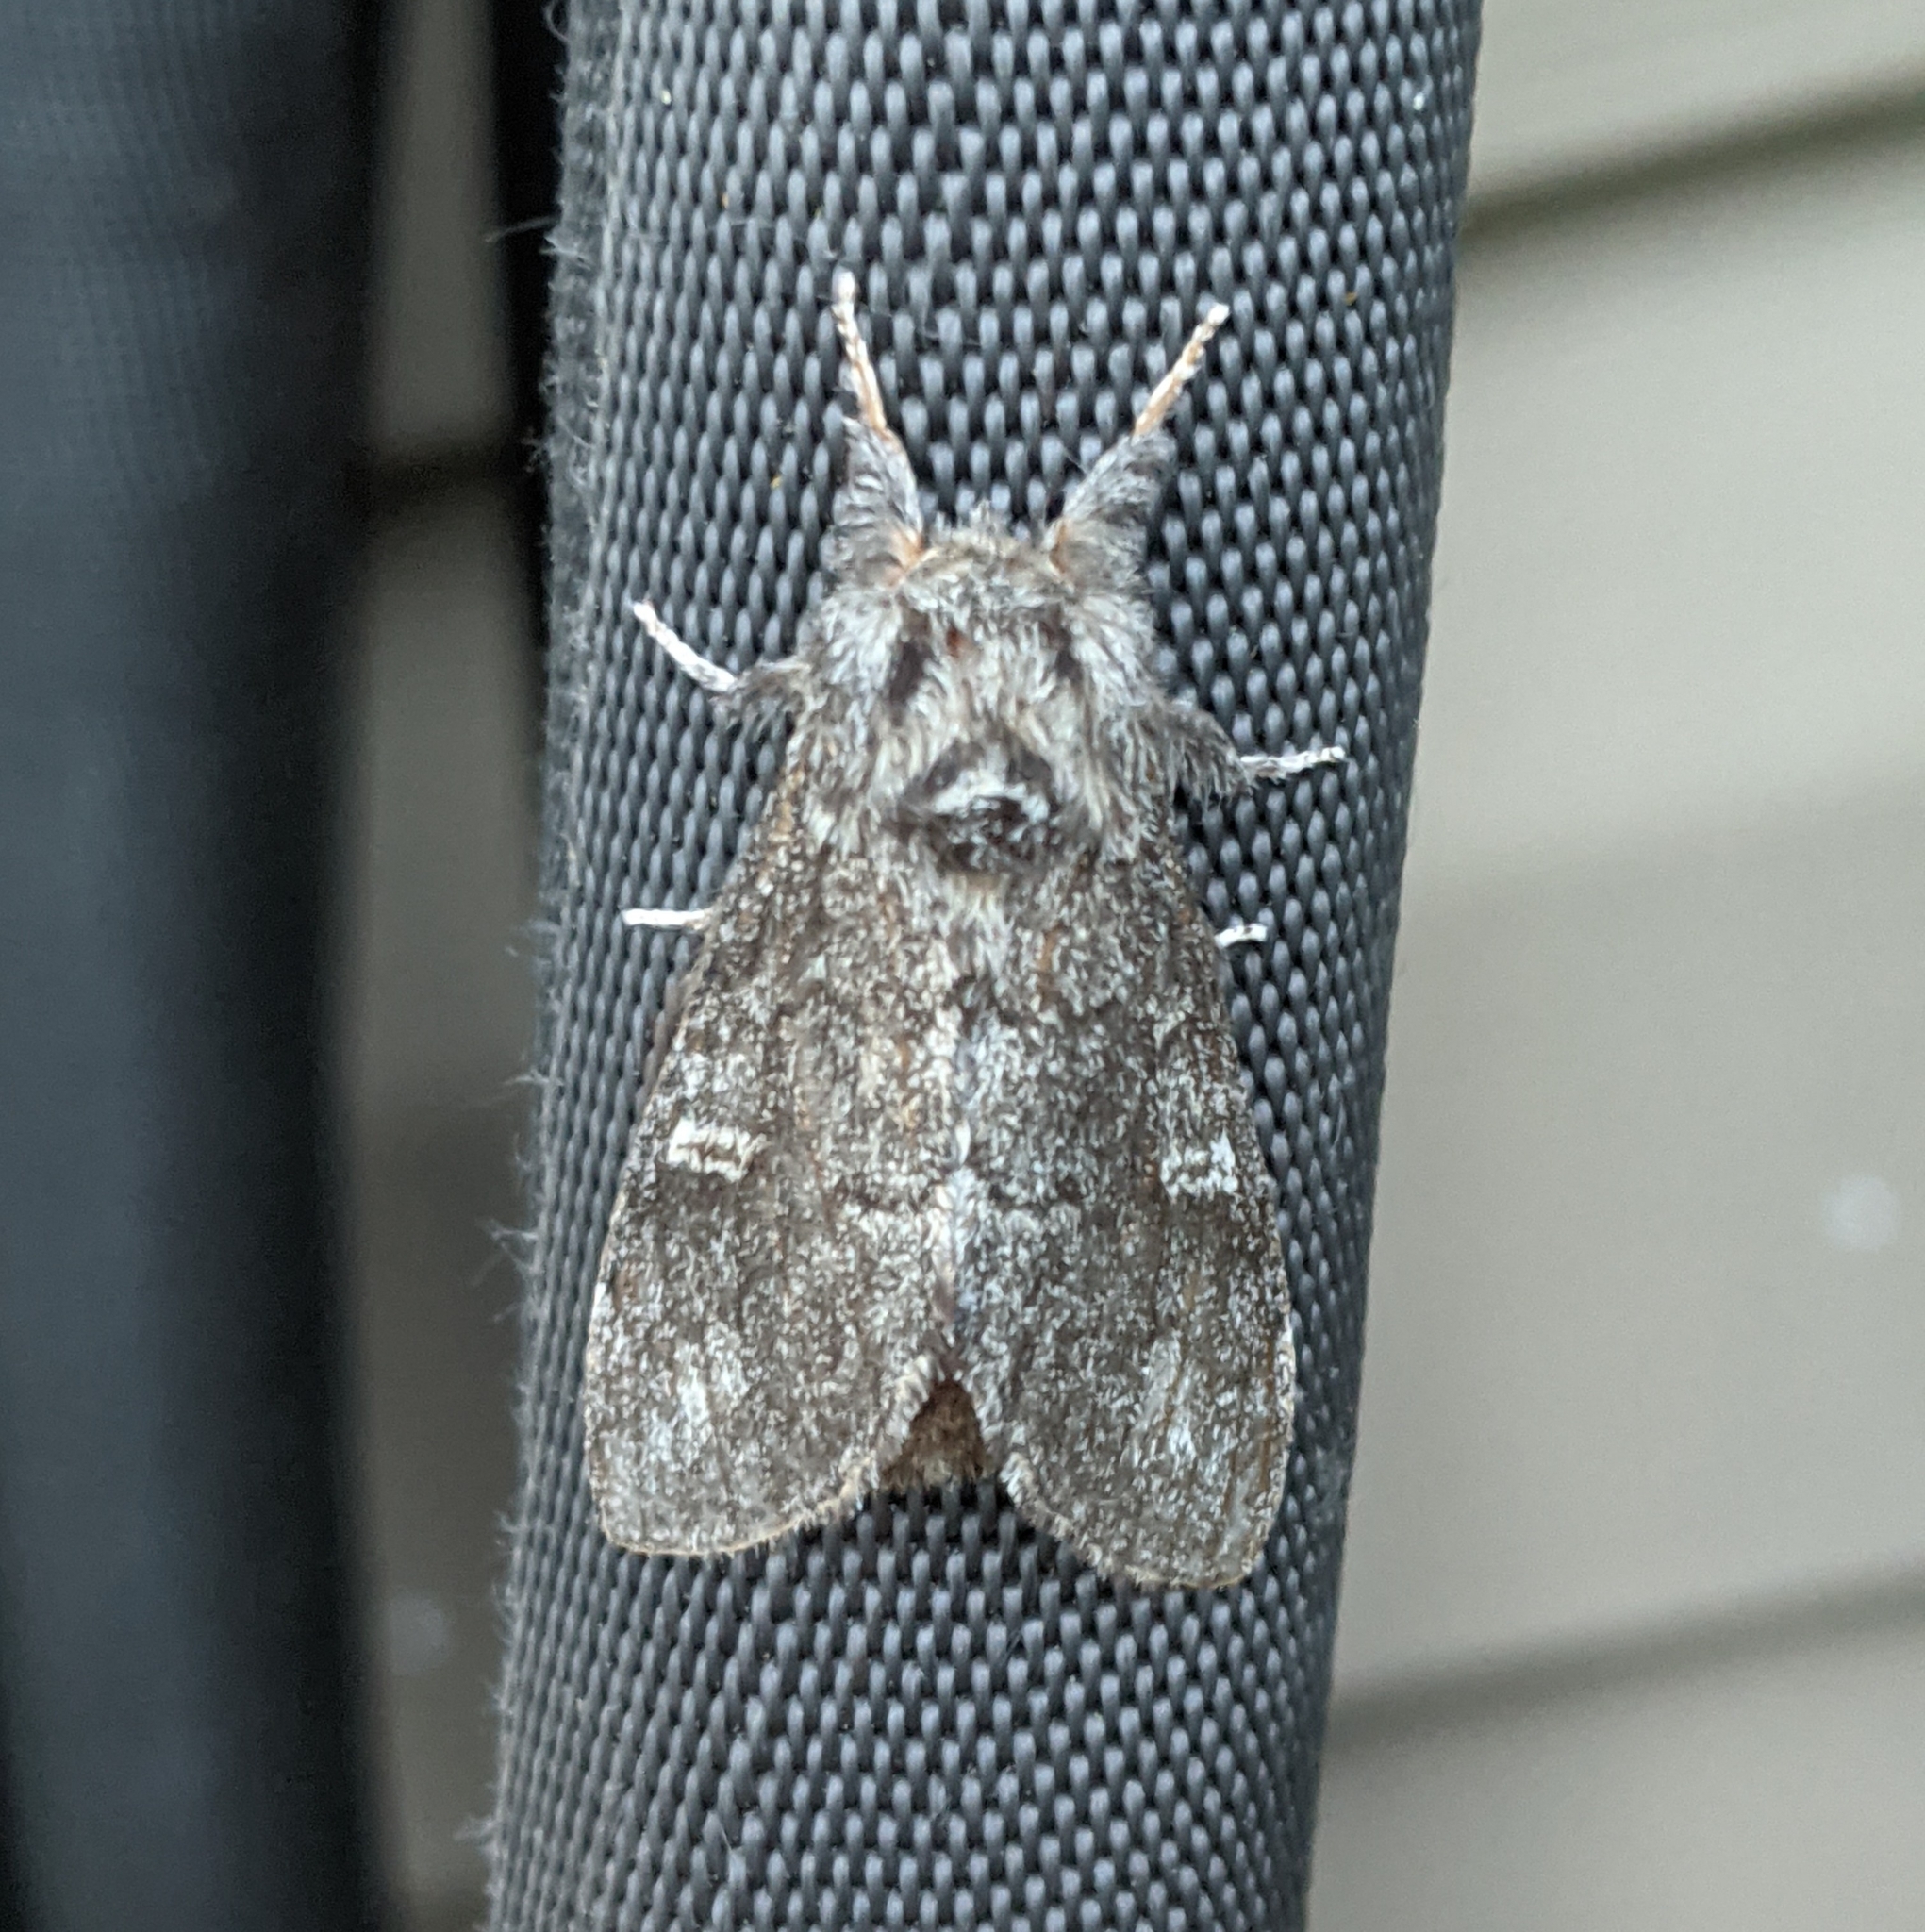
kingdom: Animalia
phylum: Arthropoda
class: Insecta
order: Lepidoptera
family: Notodontidae
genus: Notodonta
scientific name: Notodonta torva
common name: Large dark prominent
